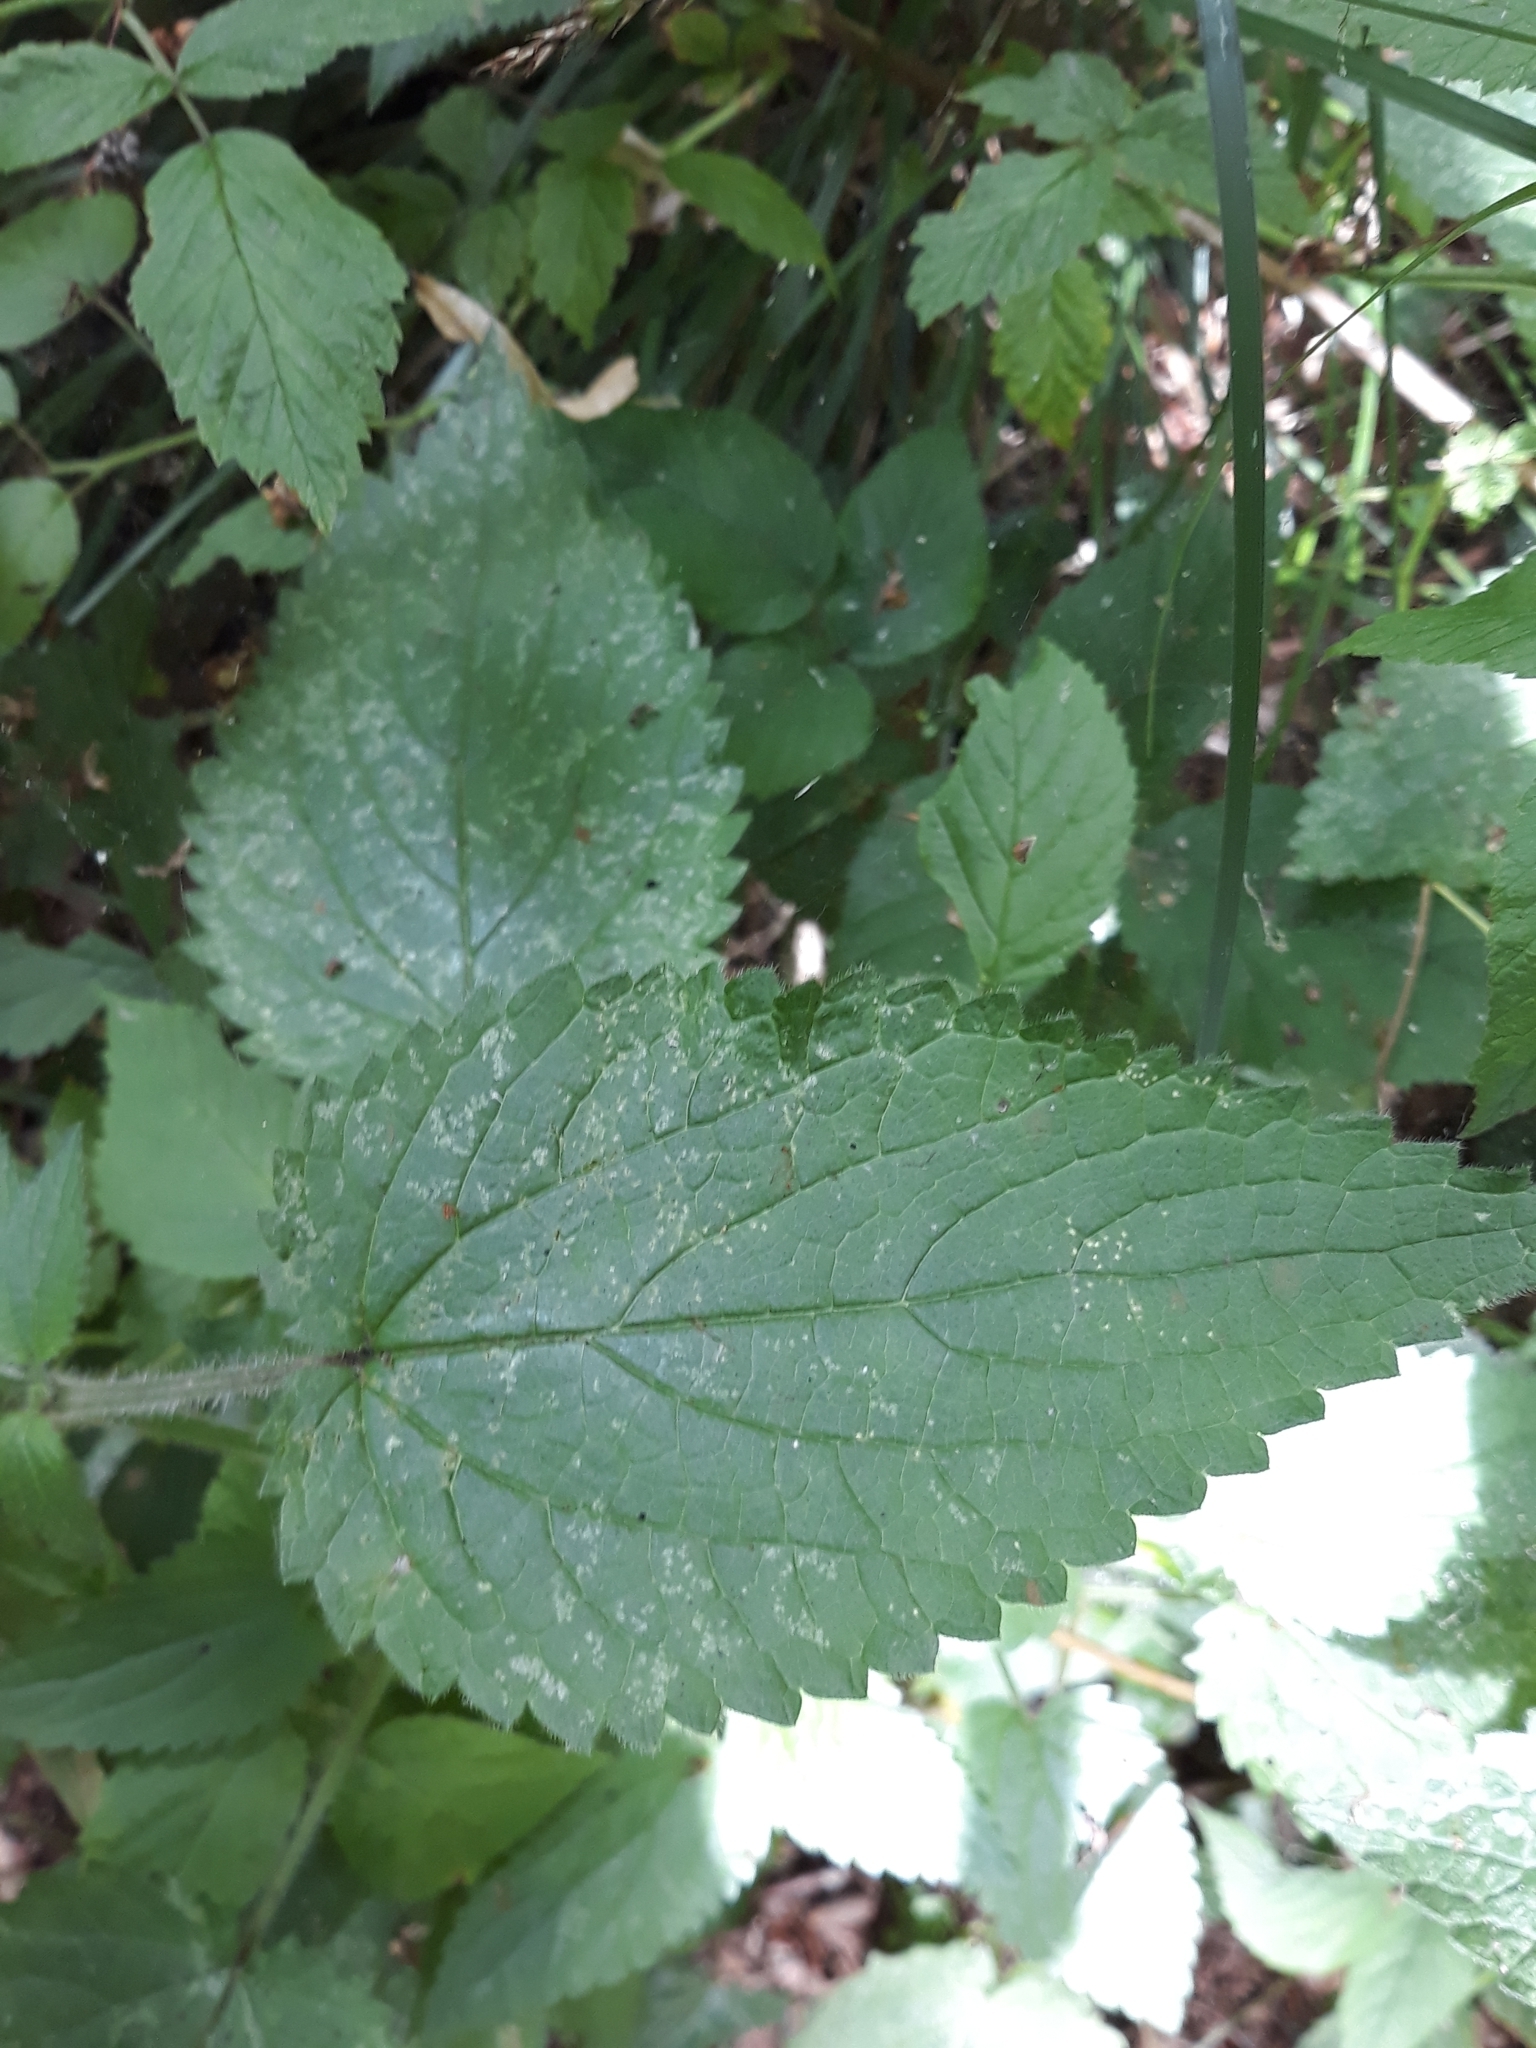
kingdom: Plantae
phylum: Tracheophyta
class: Magnoliopsida
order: Lamiales
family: Lamiaceae
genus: Stachys
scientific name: Stachys sylvatica
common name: Hedge woundwort
